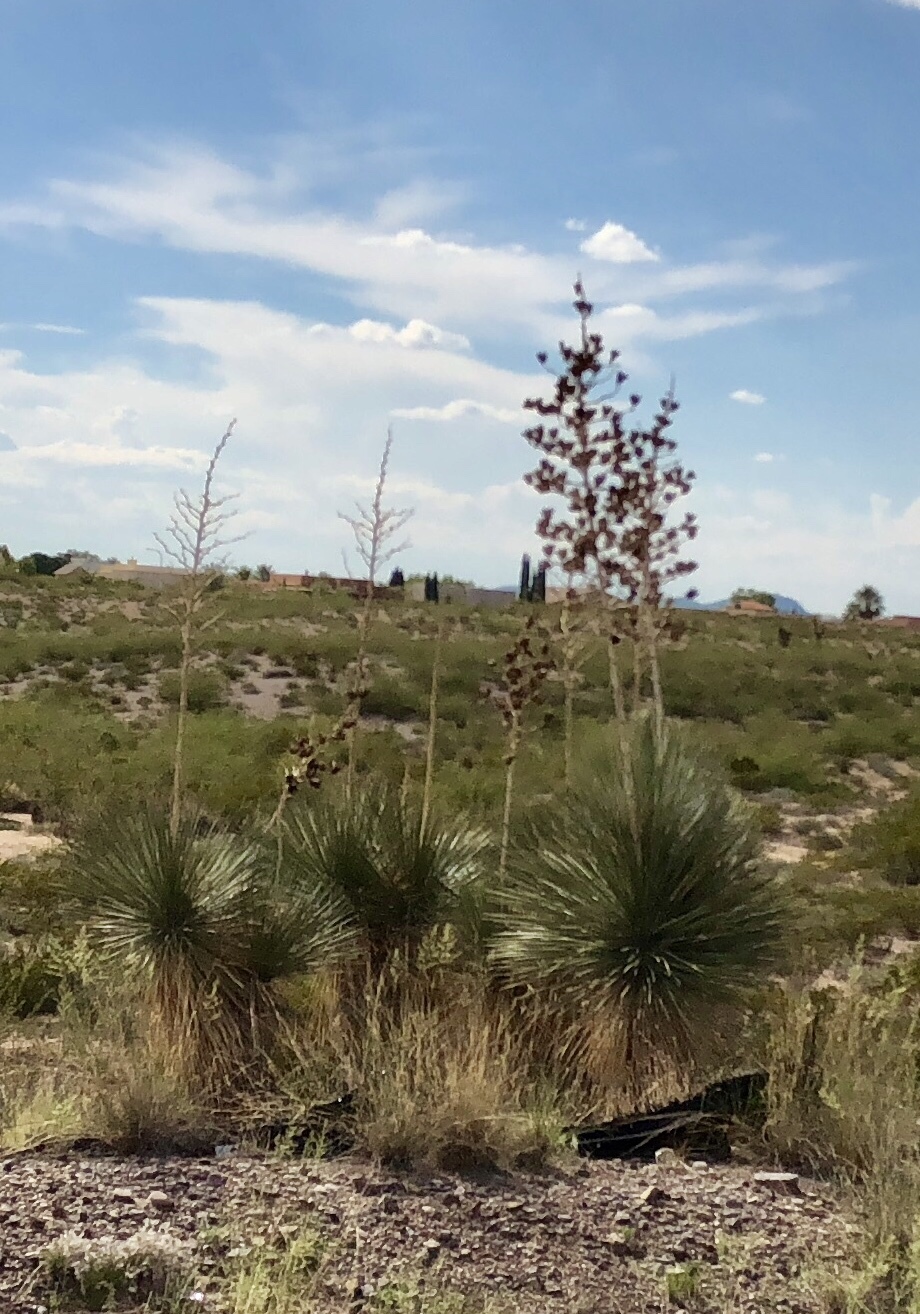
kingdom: Plantae
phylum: Tracheophyta
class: Liliopsida
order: Asparagales
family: Asparagaceae
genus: Yucca
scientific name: Yucca elata
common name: Palmella
